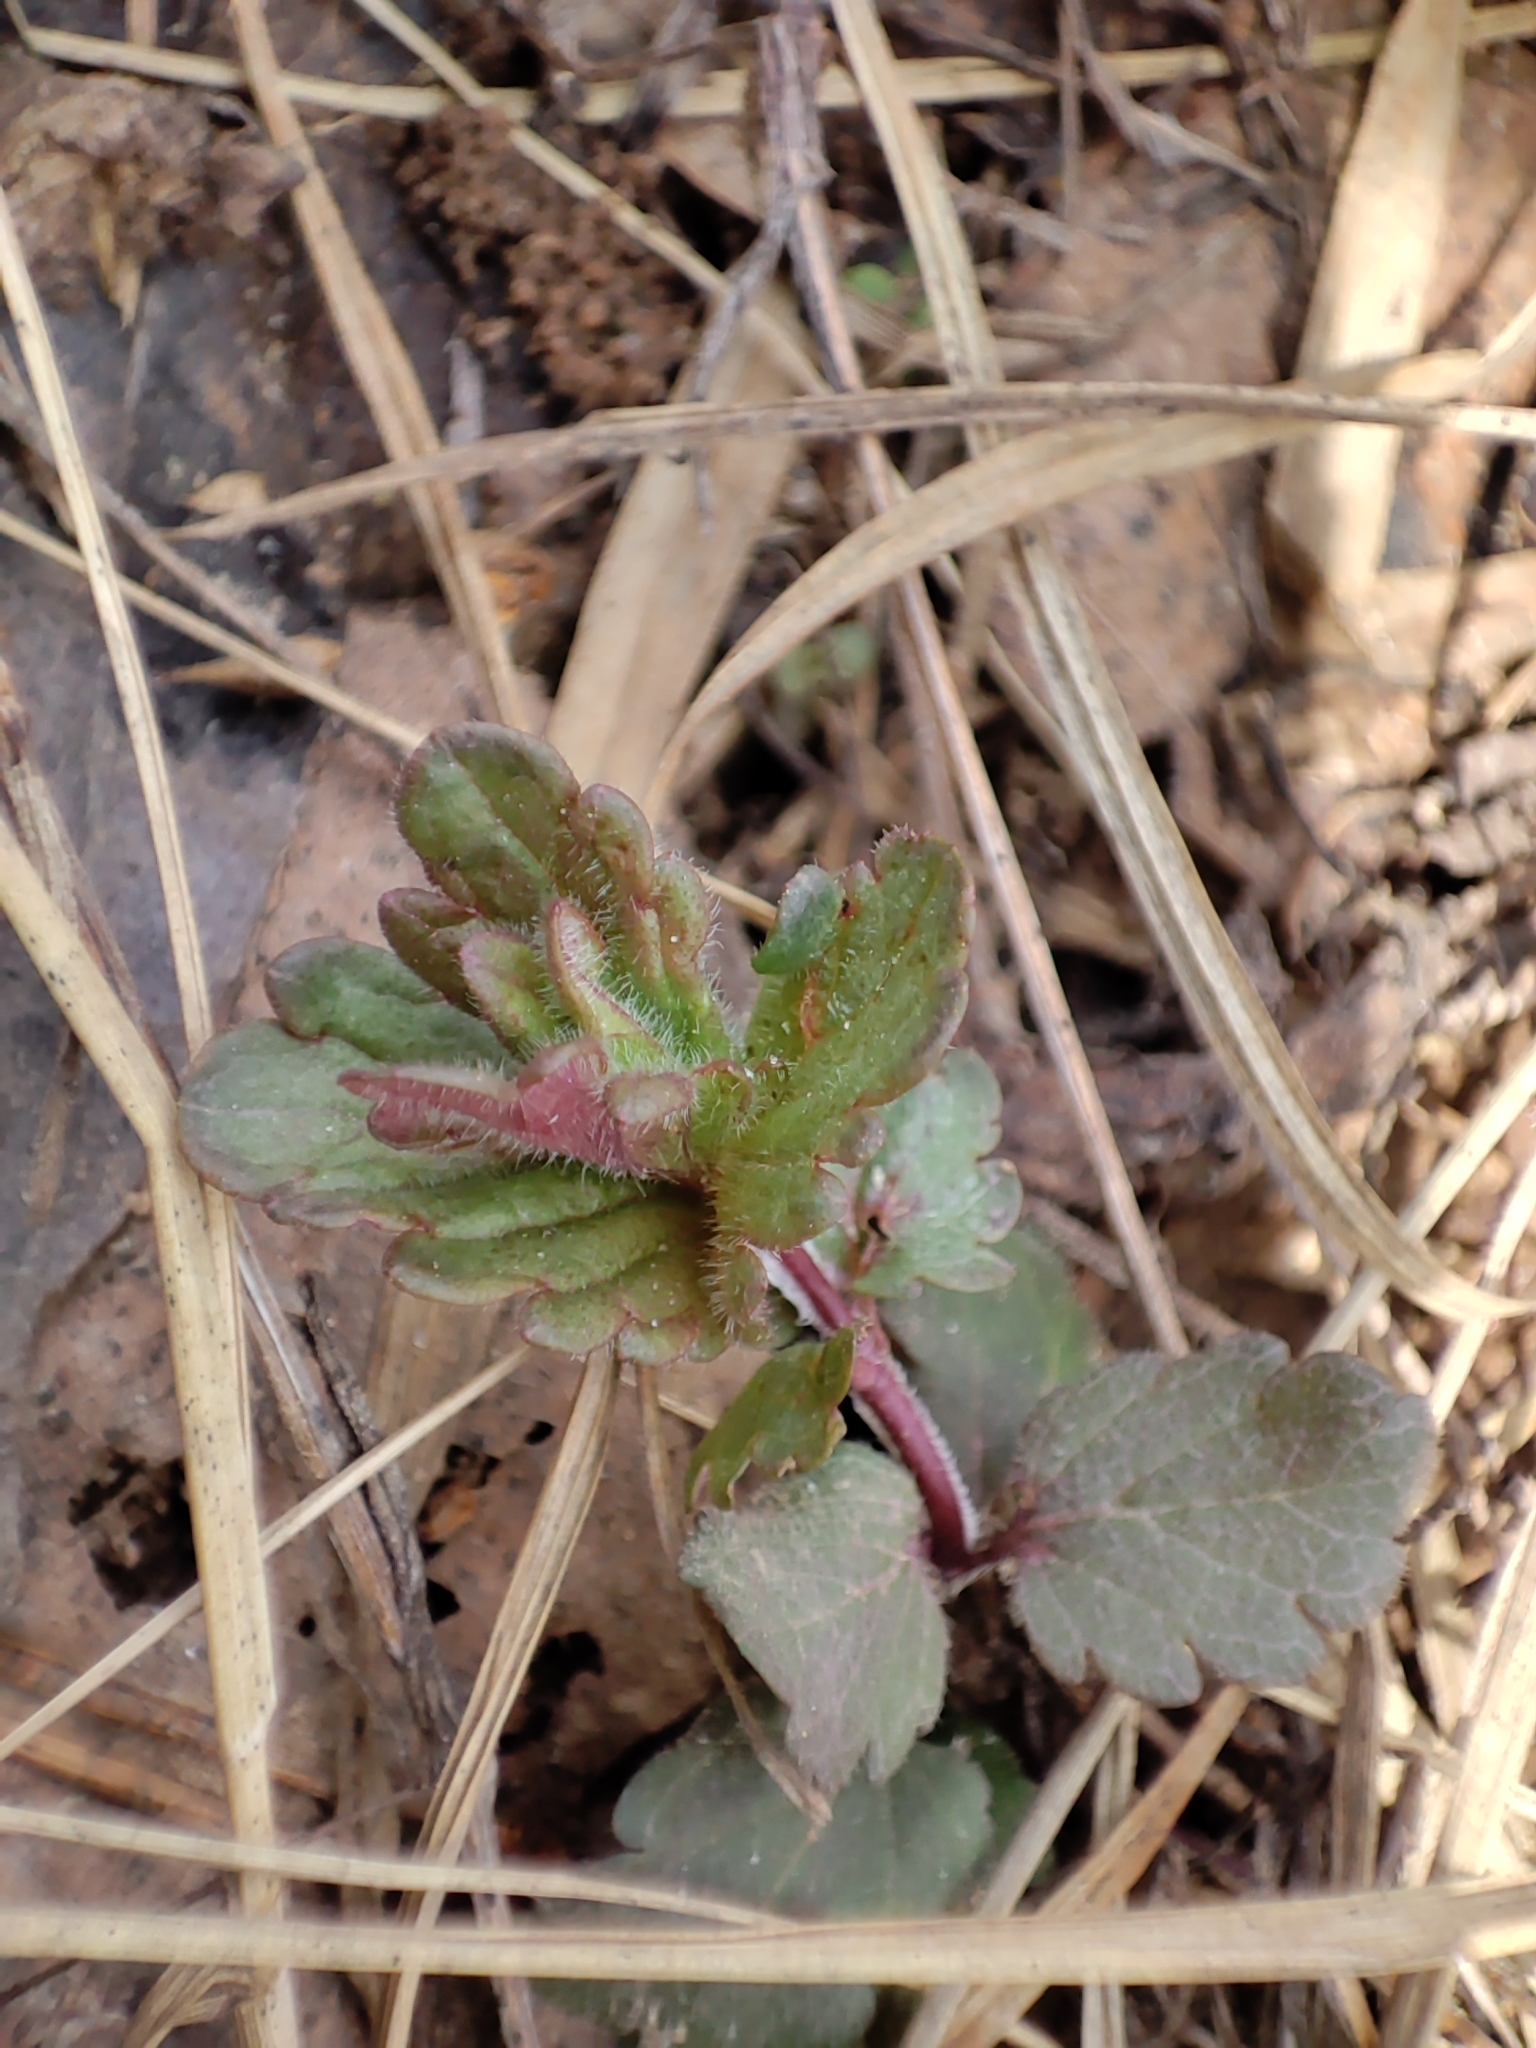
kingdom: Plantae
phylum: Tracheophyta
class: Magnoliopsida
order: Lamiales
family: Plantaginaceae
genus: Veronica
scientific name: Veronica chamaedrys
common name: Germander speedwell
